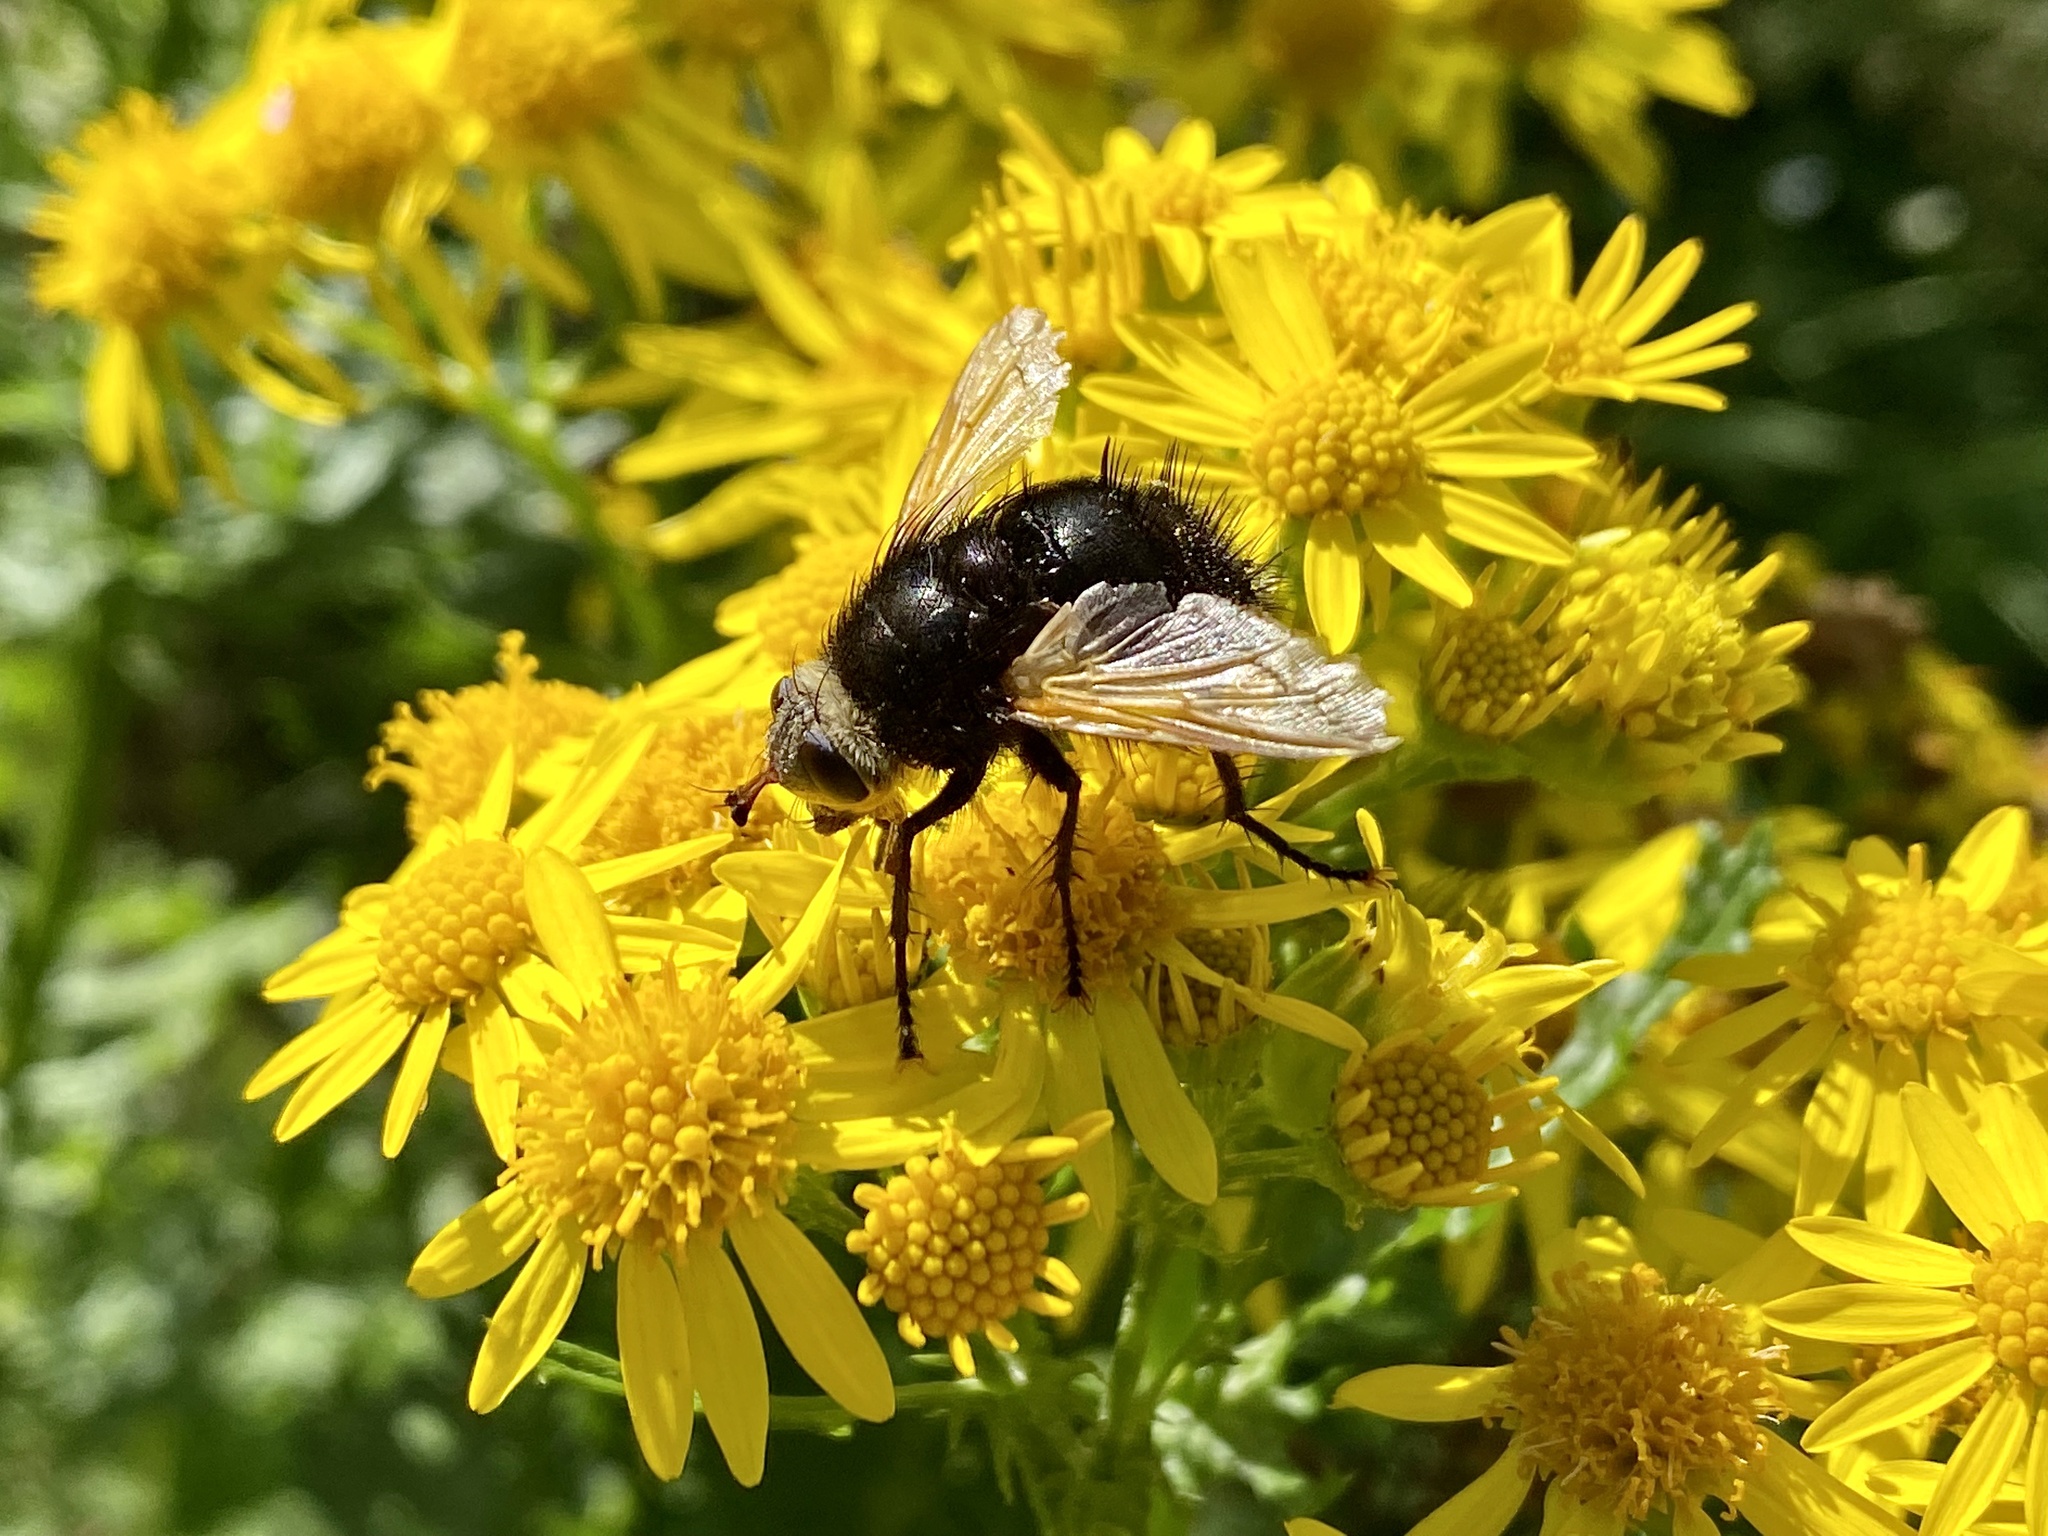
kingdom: Animalia
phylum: Arthropoda
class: Insecta
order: Diptera
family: Tachinidae
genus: Tachina
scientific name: Tachina grossa
